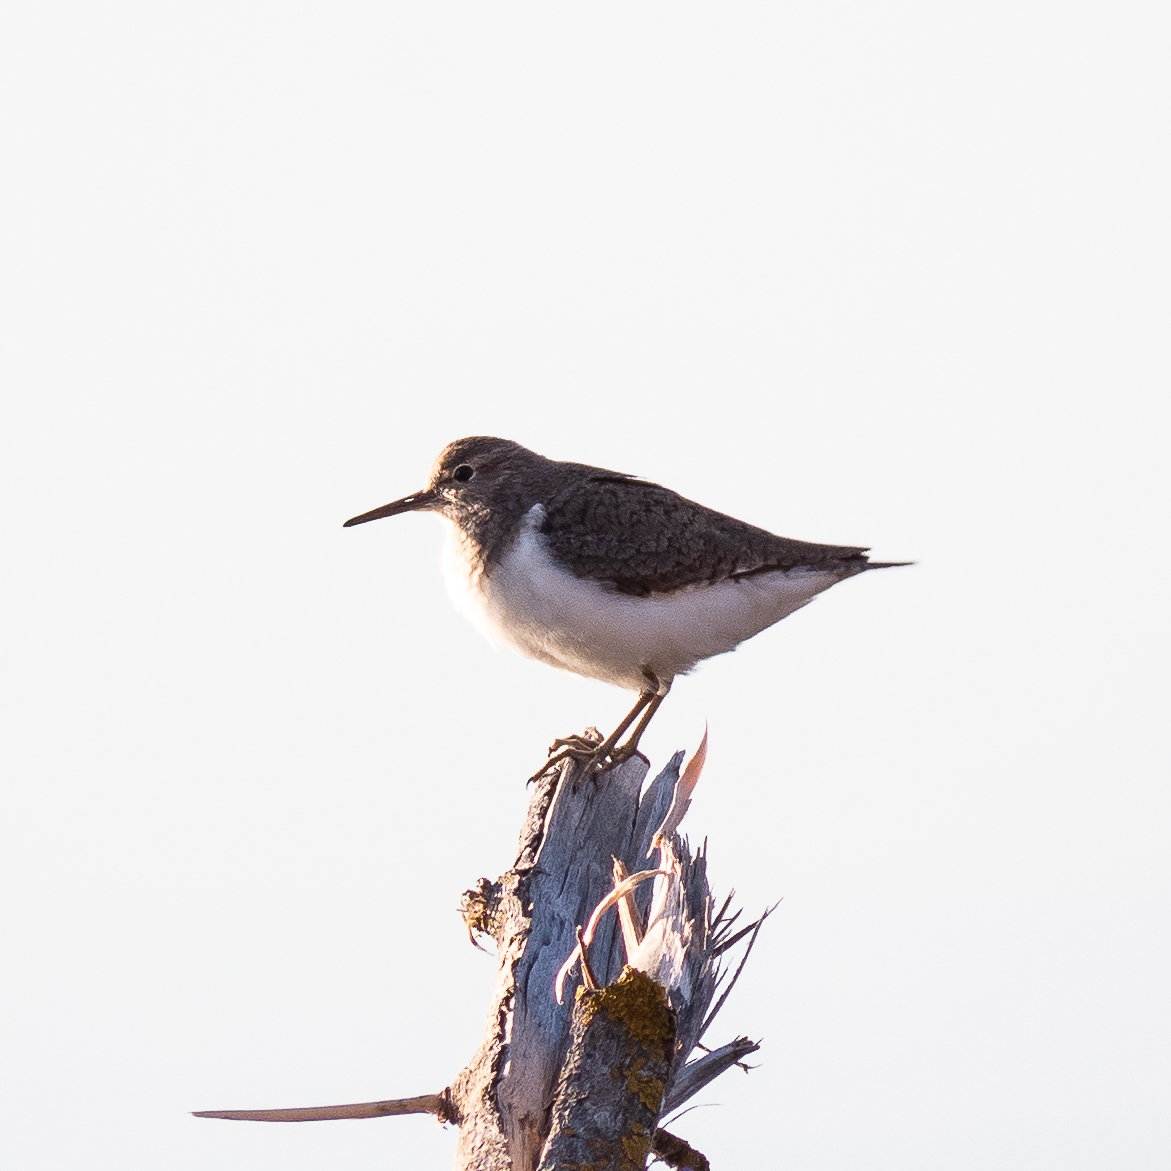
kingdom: Animalia
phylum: Chordata
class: Aves
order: Charadriiformes
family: Scolopacidae
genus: Actitis
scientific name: Actitis hypoleucos
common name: Common sandpiper
